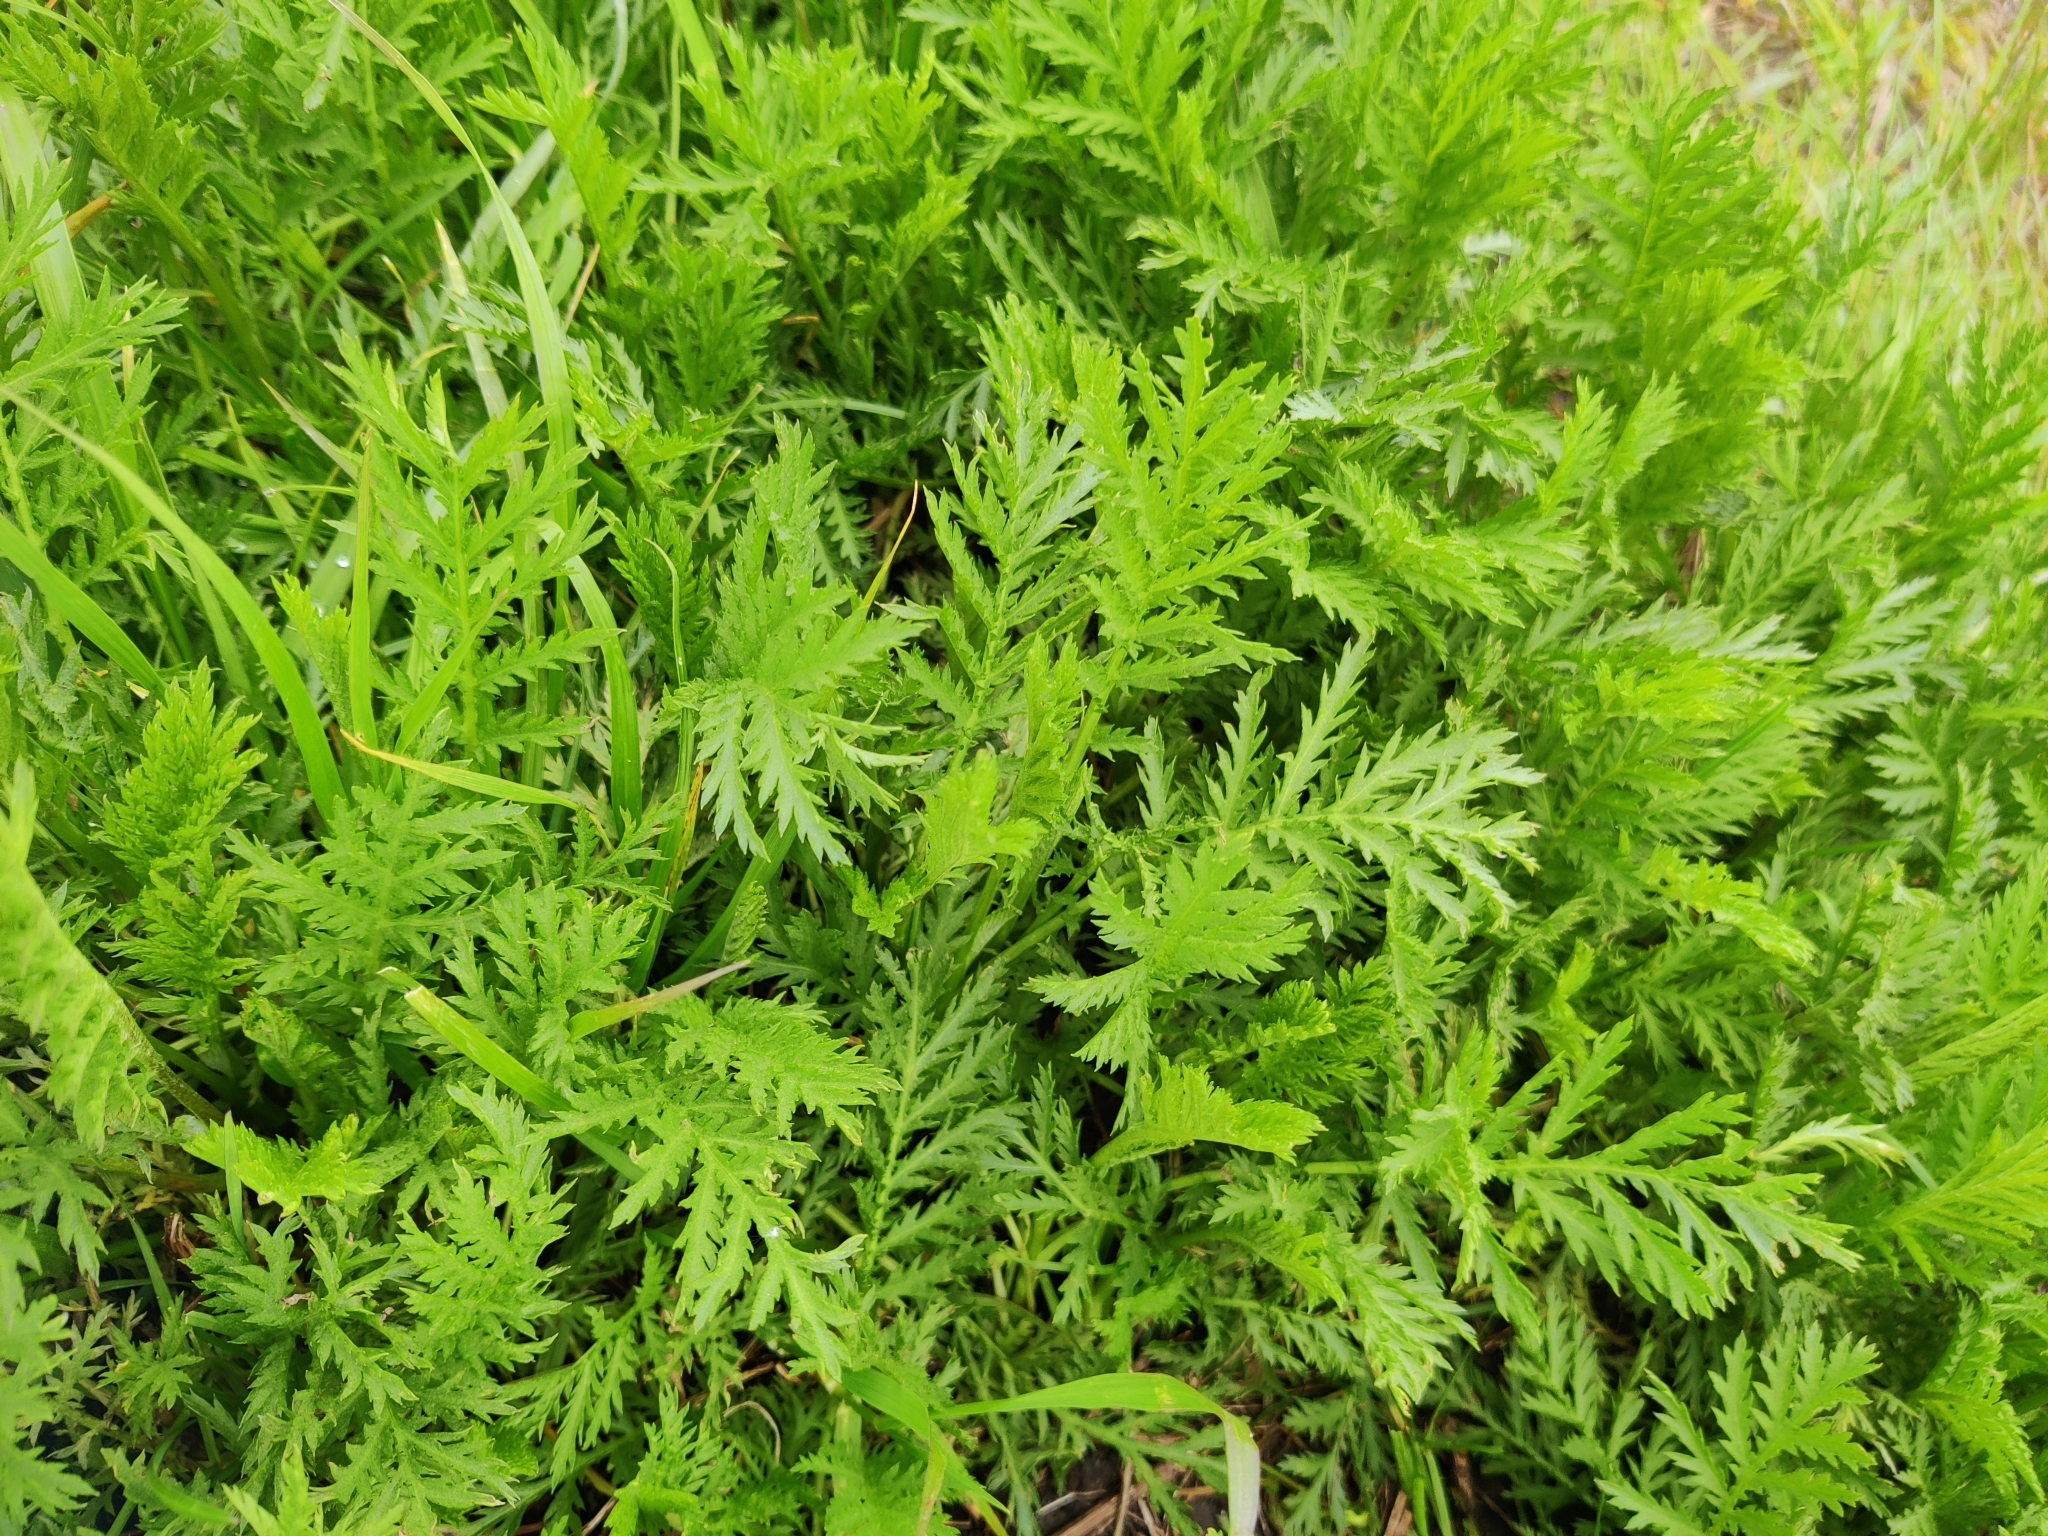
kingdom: Plantae
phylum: Tracheophyta
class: Magnoliopsida
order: Asterales
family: Asteraceae
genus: Tanacetum
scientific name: Tanacetum vulgare
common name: Common tansy
